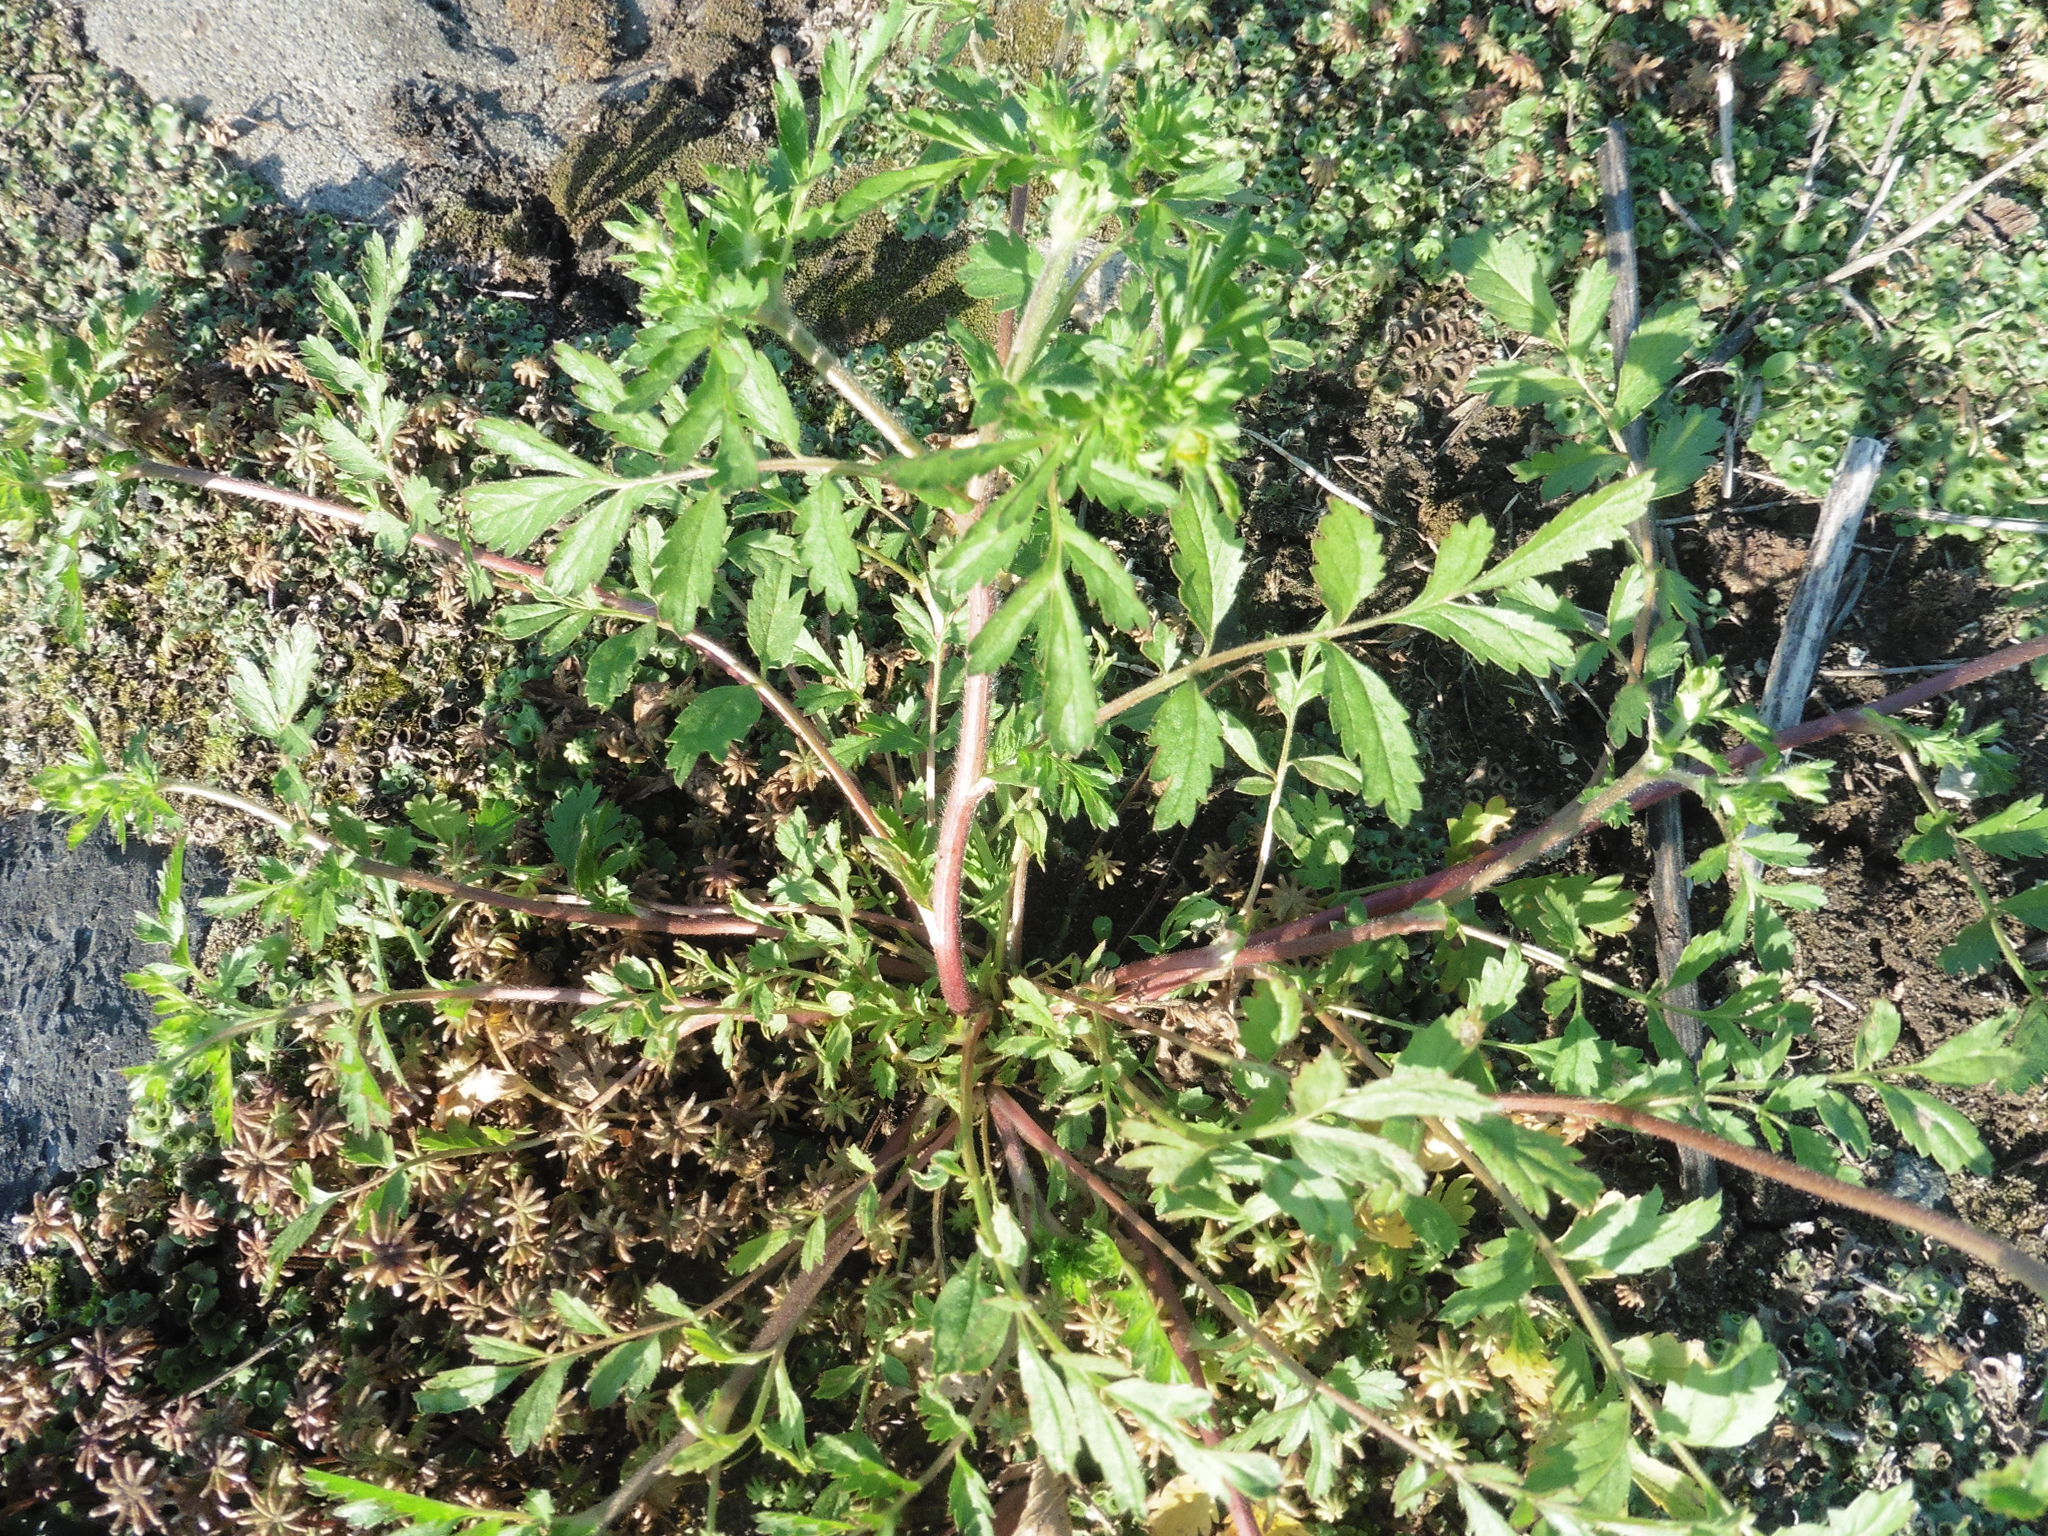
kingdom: Plantae
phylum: Tracheophyta
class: Magnoliopsida
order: Rosales
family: Rosaceae
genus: Potentilla
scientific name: Potentilla supina
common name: Prostrate cinquefoil
